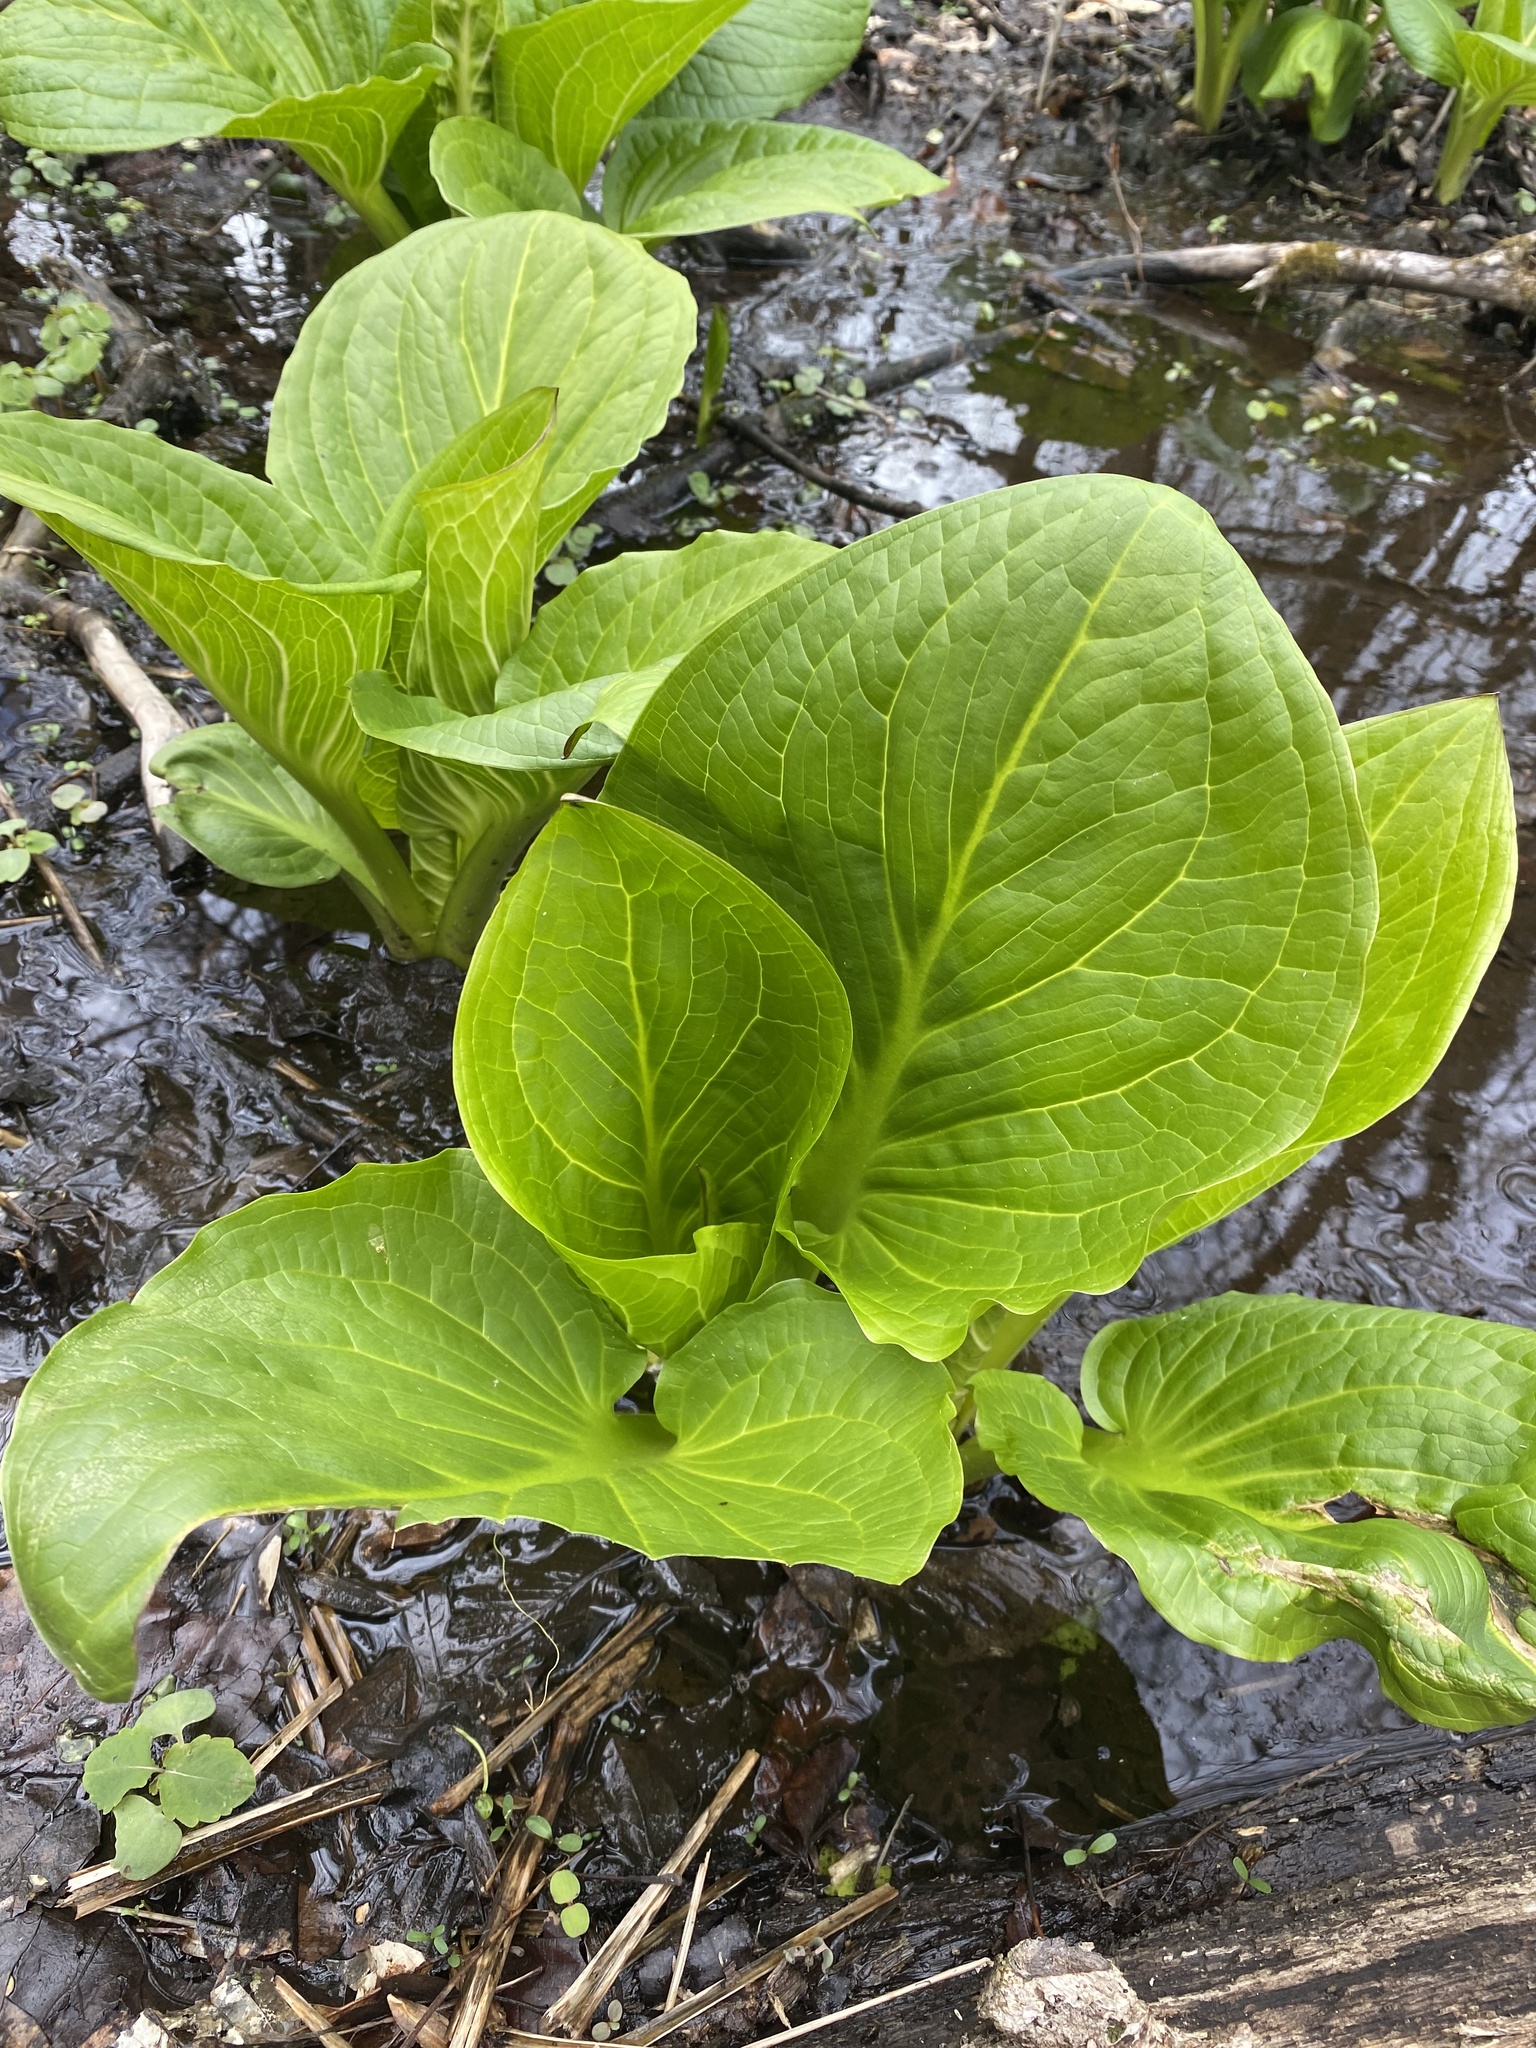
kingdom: Plantae
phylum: Tracheophyta
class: Liliopsida
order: Alismatales
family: Araceae
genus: Symplocarpus
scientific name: Symplocarpus foetidus
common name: Eastern skunk cabbage
